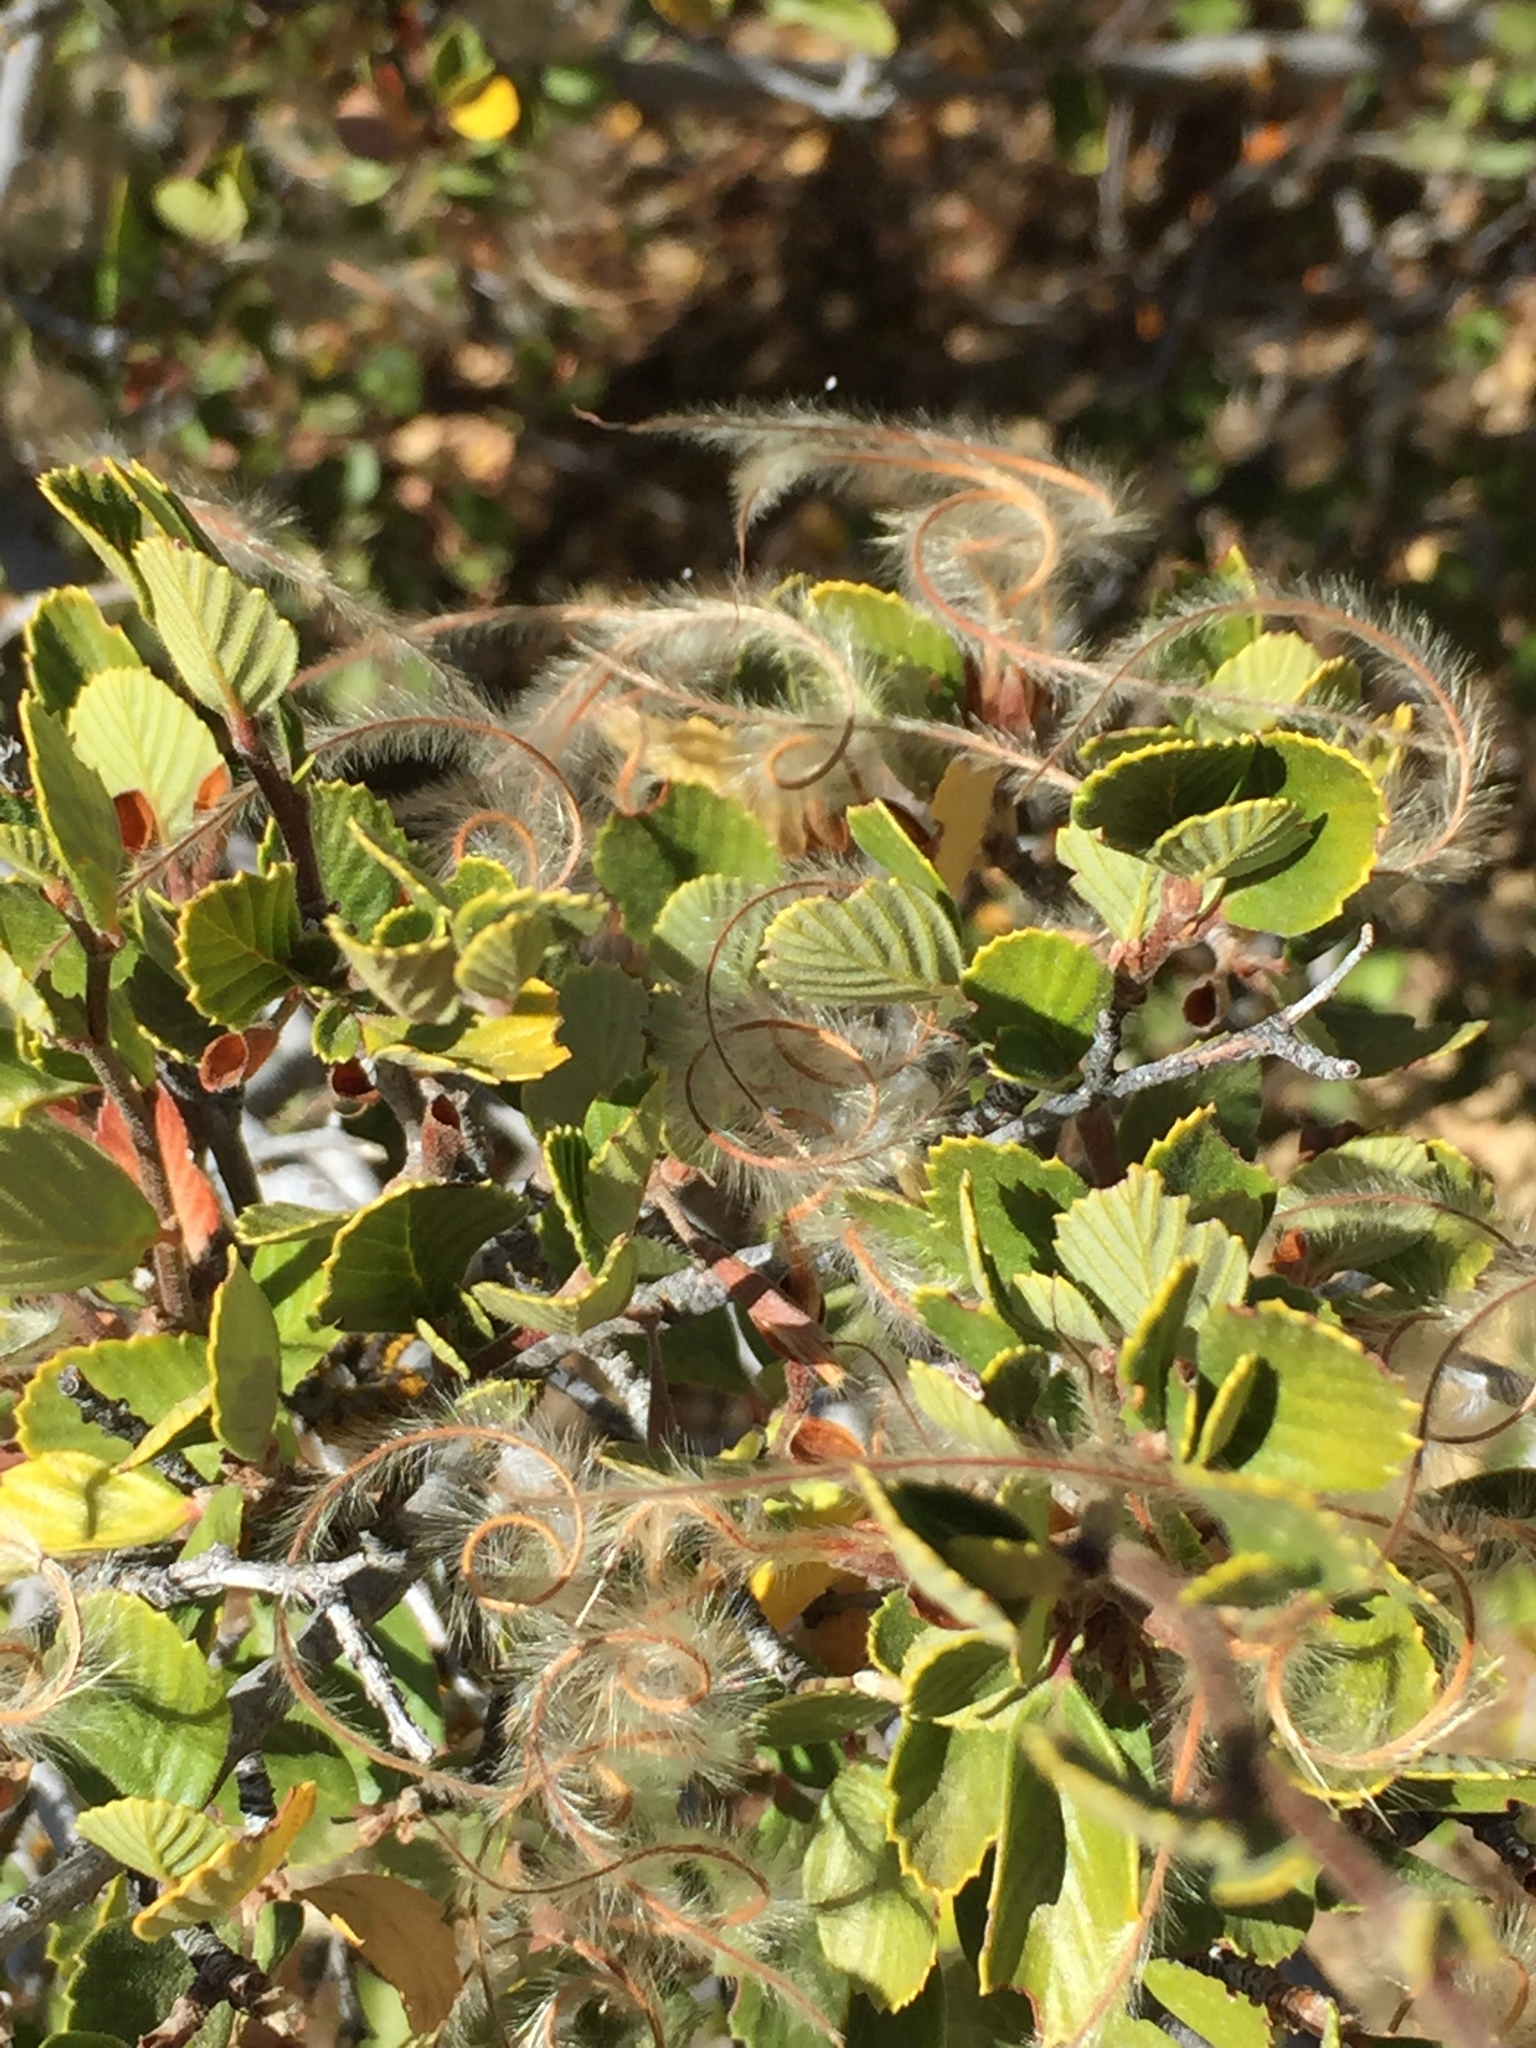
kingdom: Plantae
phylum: Tracheophyta
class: Magnoliopsida
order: Rosales
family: Rosaceae
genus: Cercocarpus
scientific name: Cercocarpus betuloides
